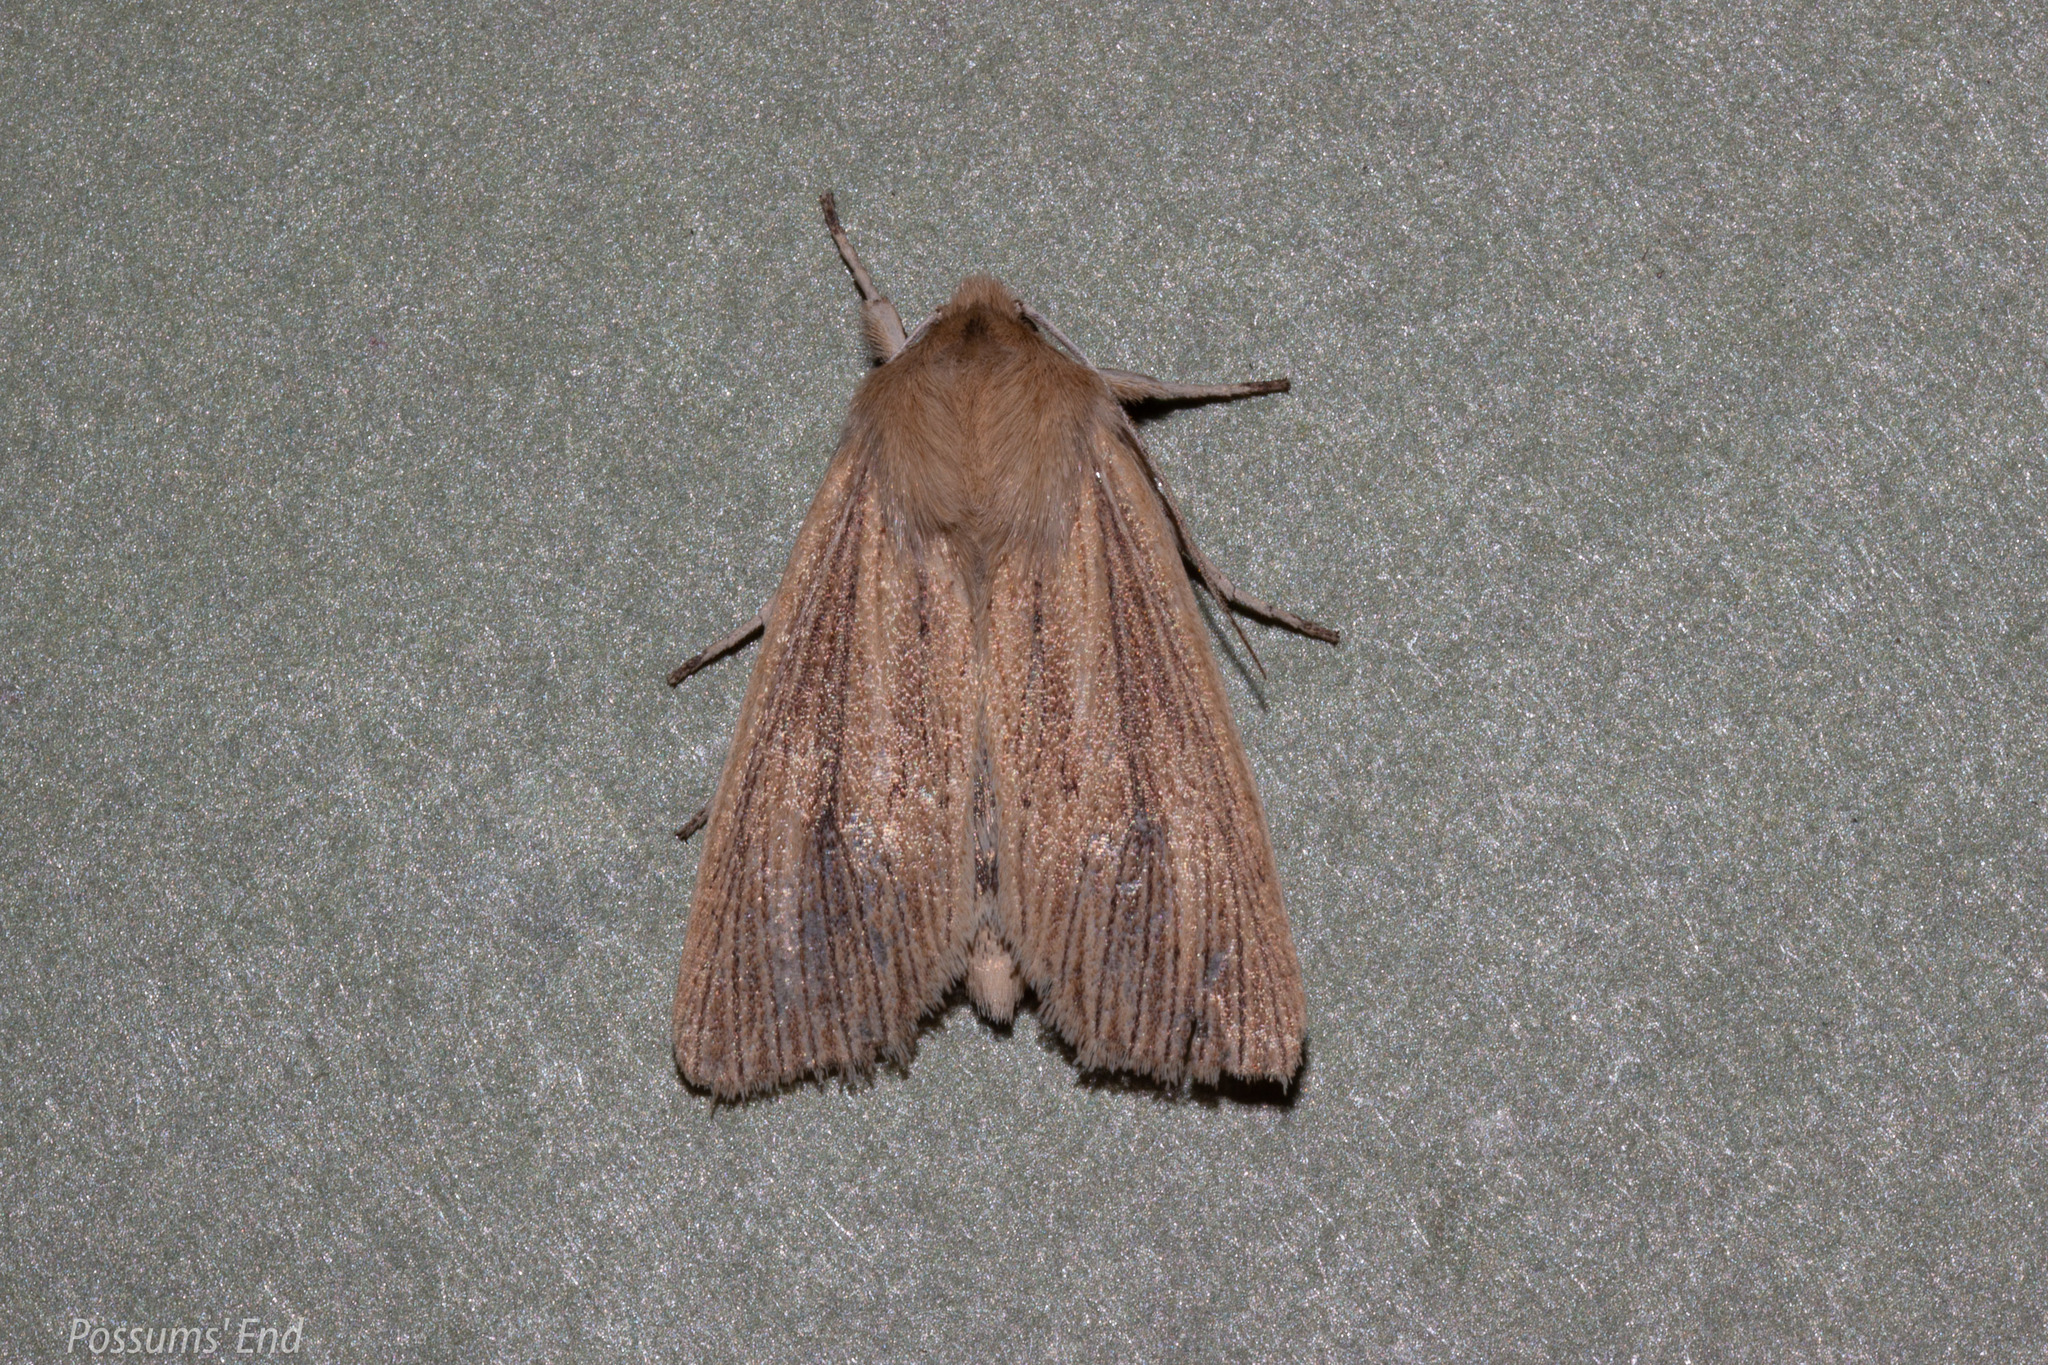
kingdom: Animalia
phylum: Arthropoda
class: Insecta
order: Lepidoptera
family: Noctuidae
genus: Ichneutica
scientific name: Ichneutica arotis
